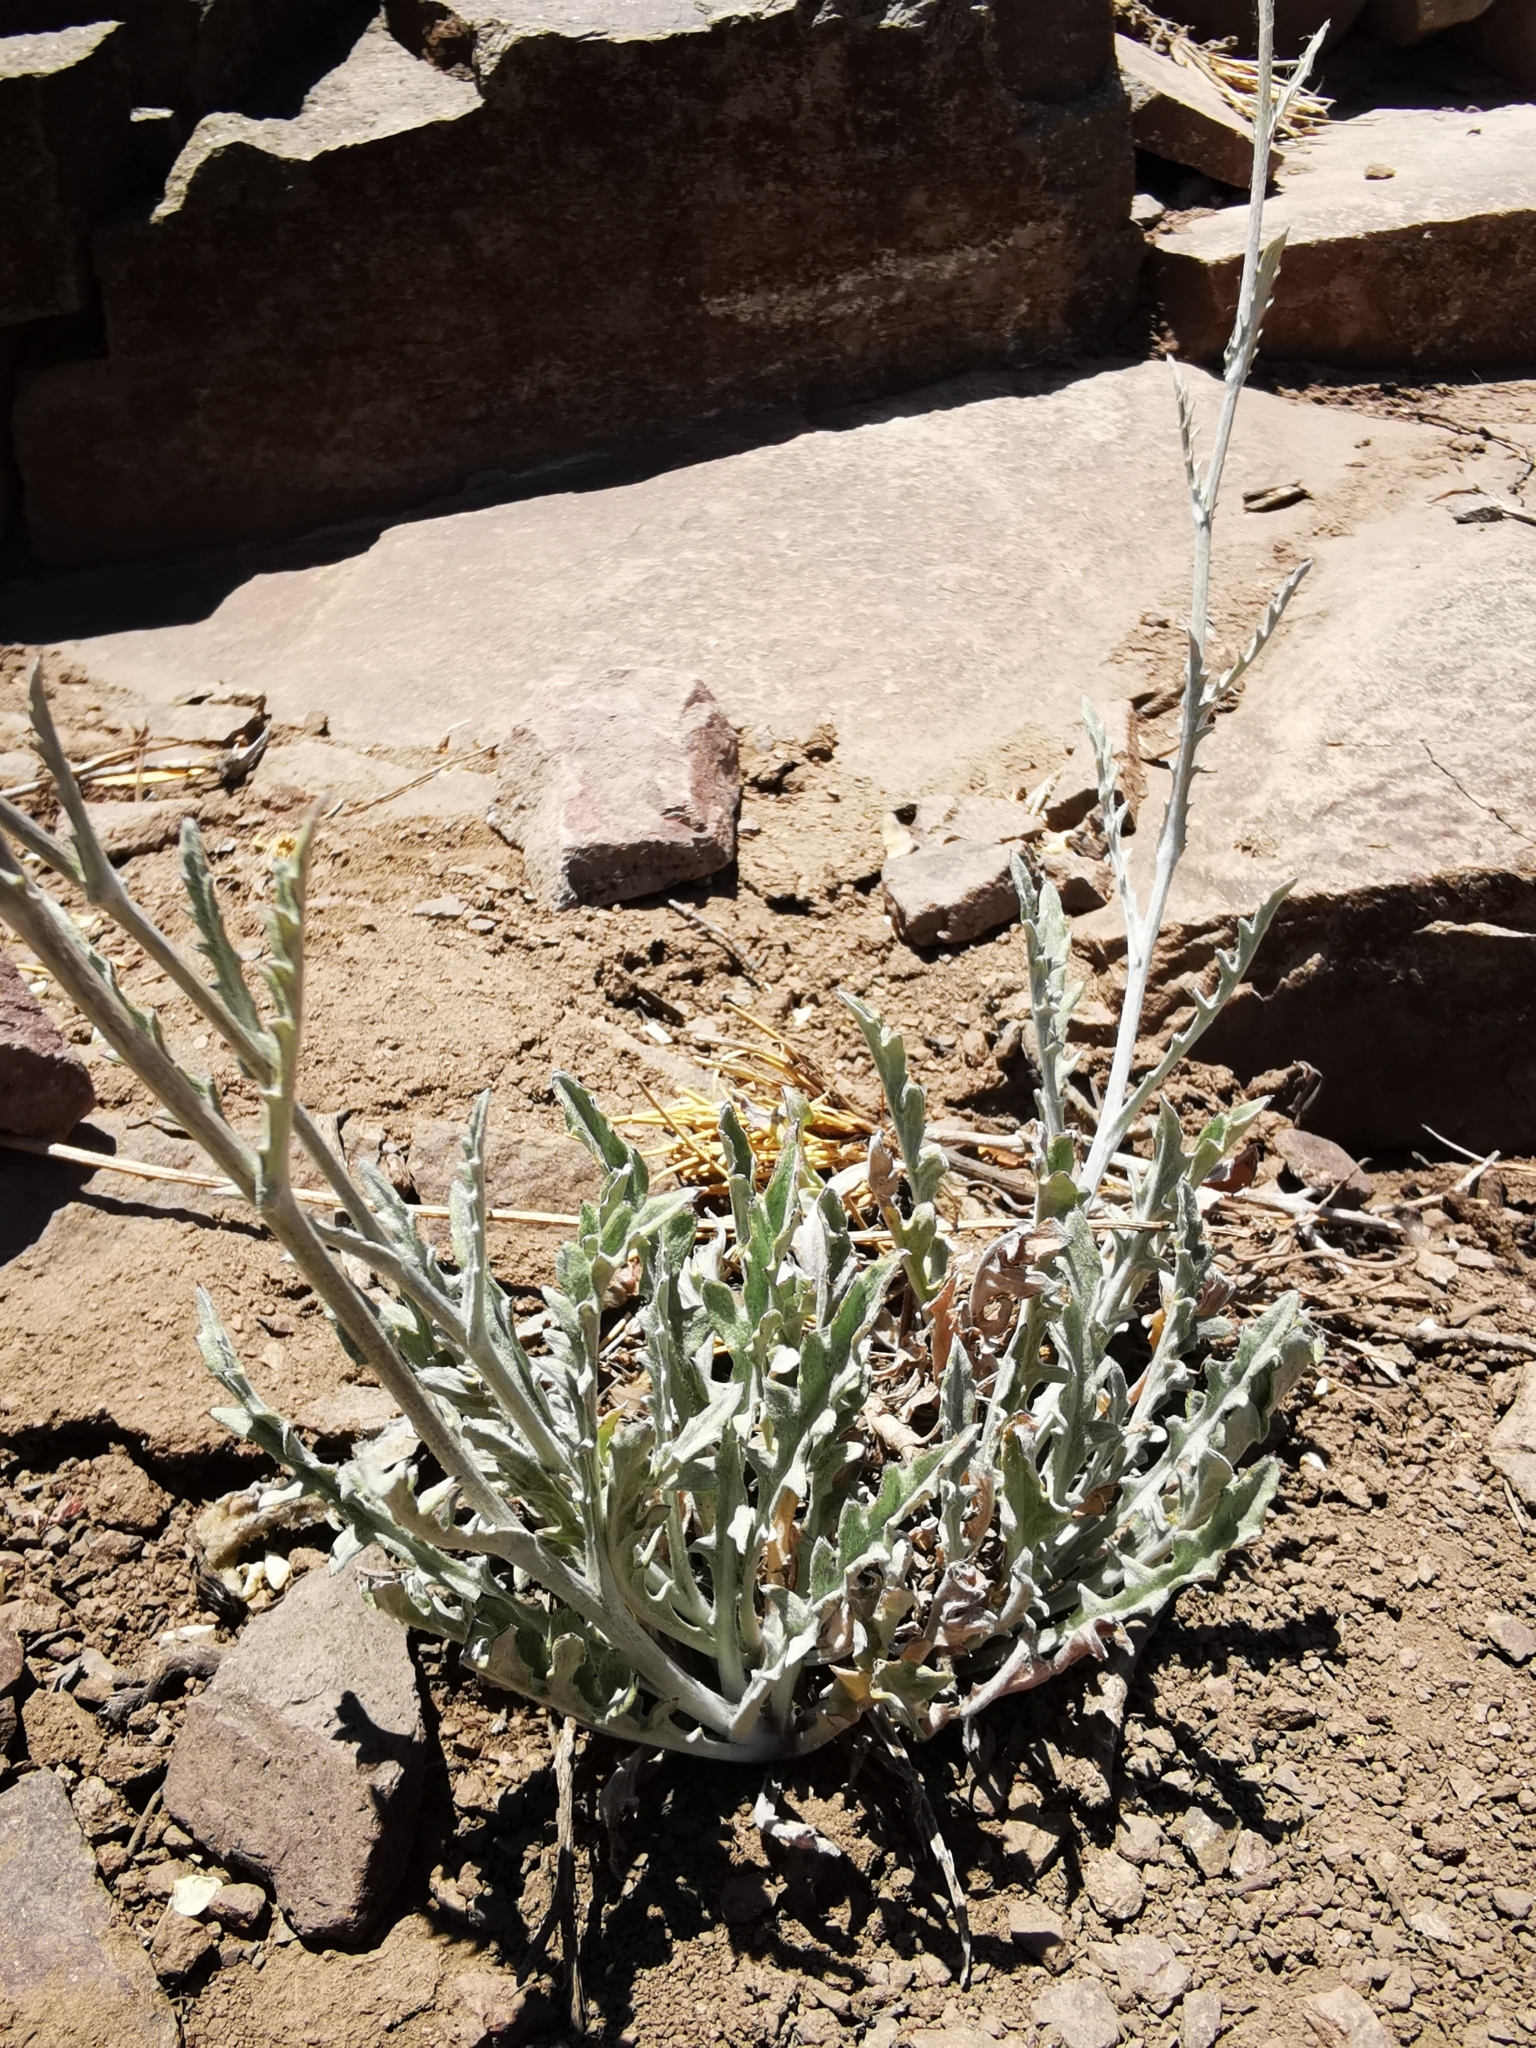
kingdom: Plantae
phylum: Tracheophyta
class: Magnoliopsida
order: Asterales
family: Asteraceae
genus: Leucheria
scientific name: Leucheria rosea
